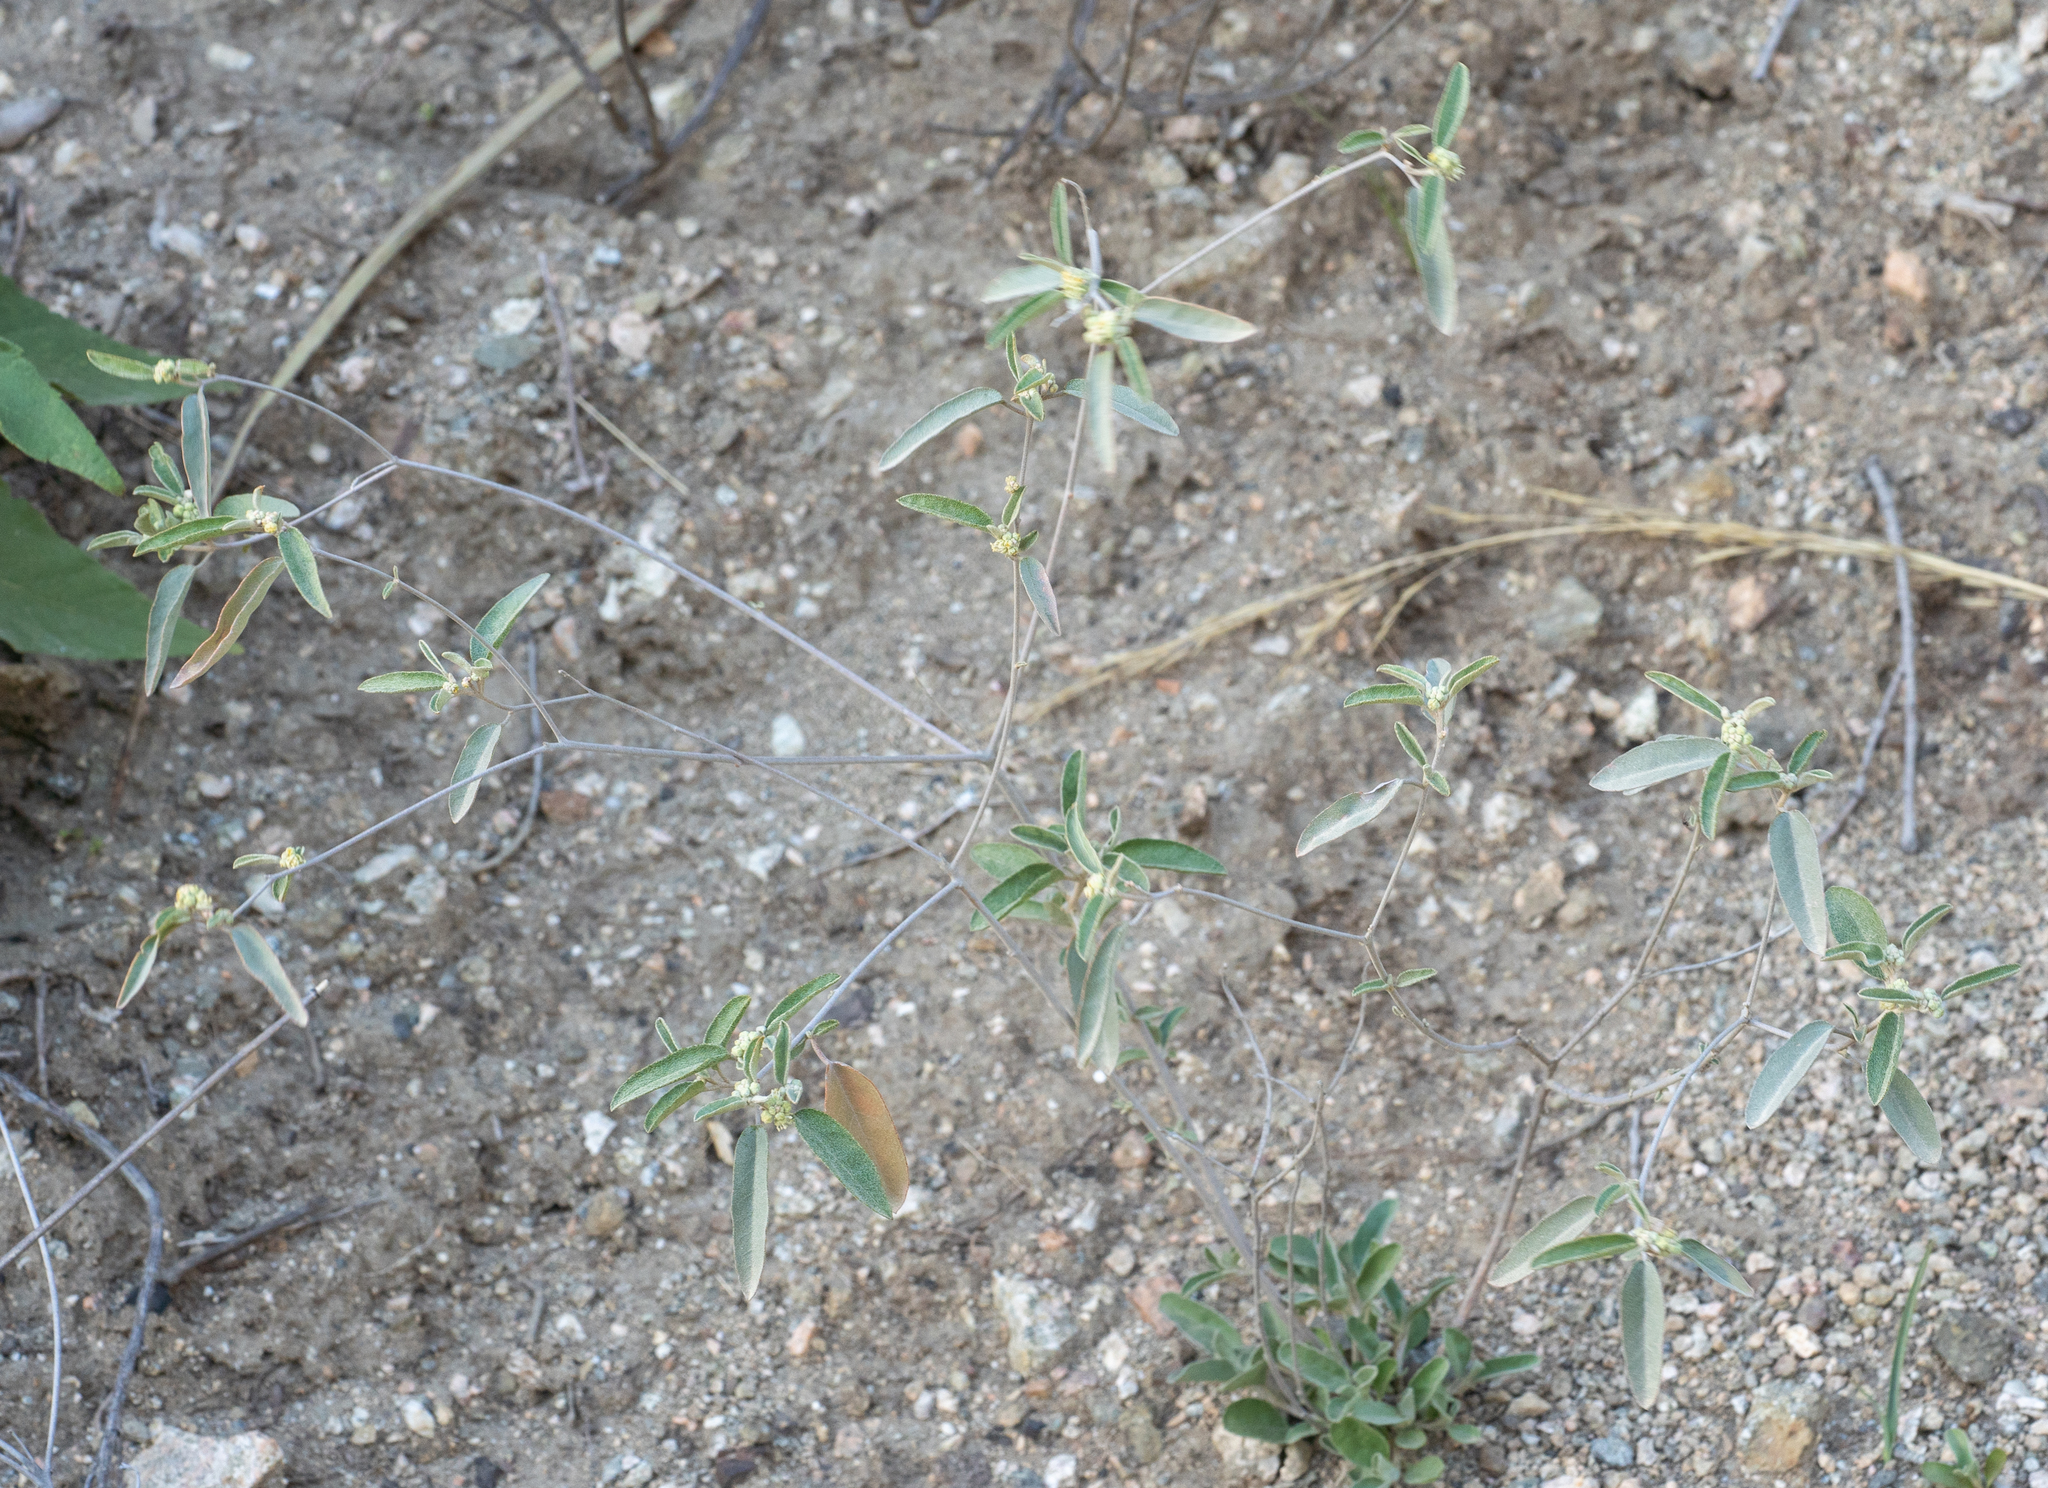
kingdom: Plantae
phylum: Tracheophyta
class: Magnoliopsida
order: Malpighiales
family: Euphorbiaceae
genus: Croton
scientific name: Croton californicus
